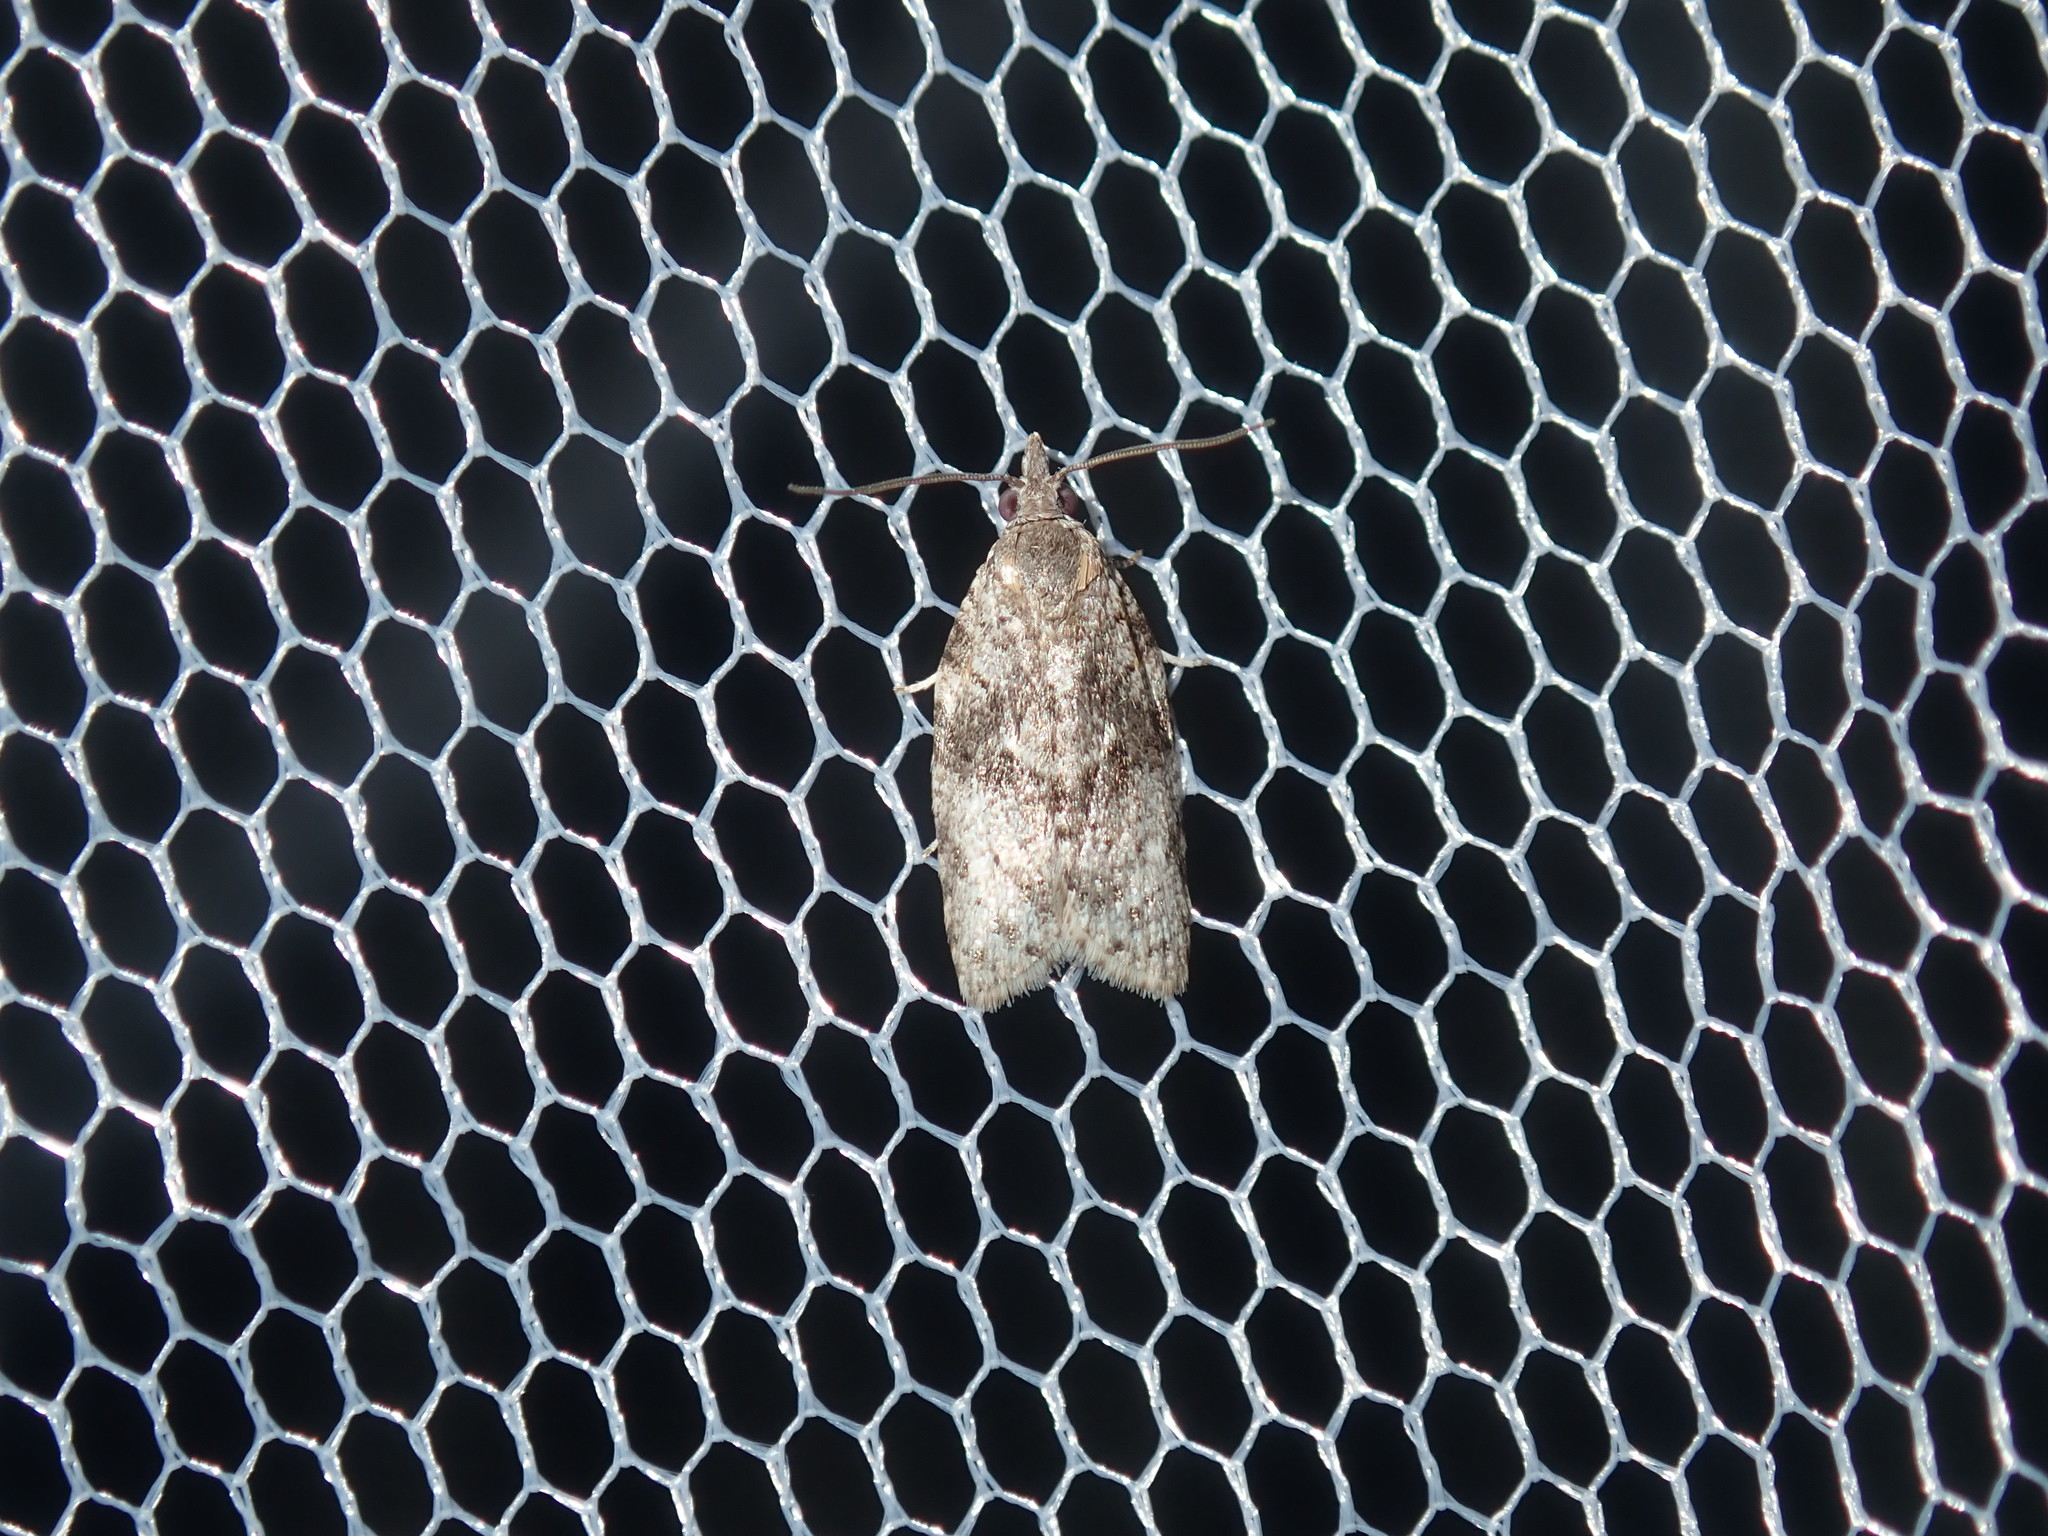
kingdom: Animalia
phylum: Arthropoda
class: Insecta
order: Lepidoptera
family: Tortricidae
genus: Isotenes
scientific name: Isotenes miserana
